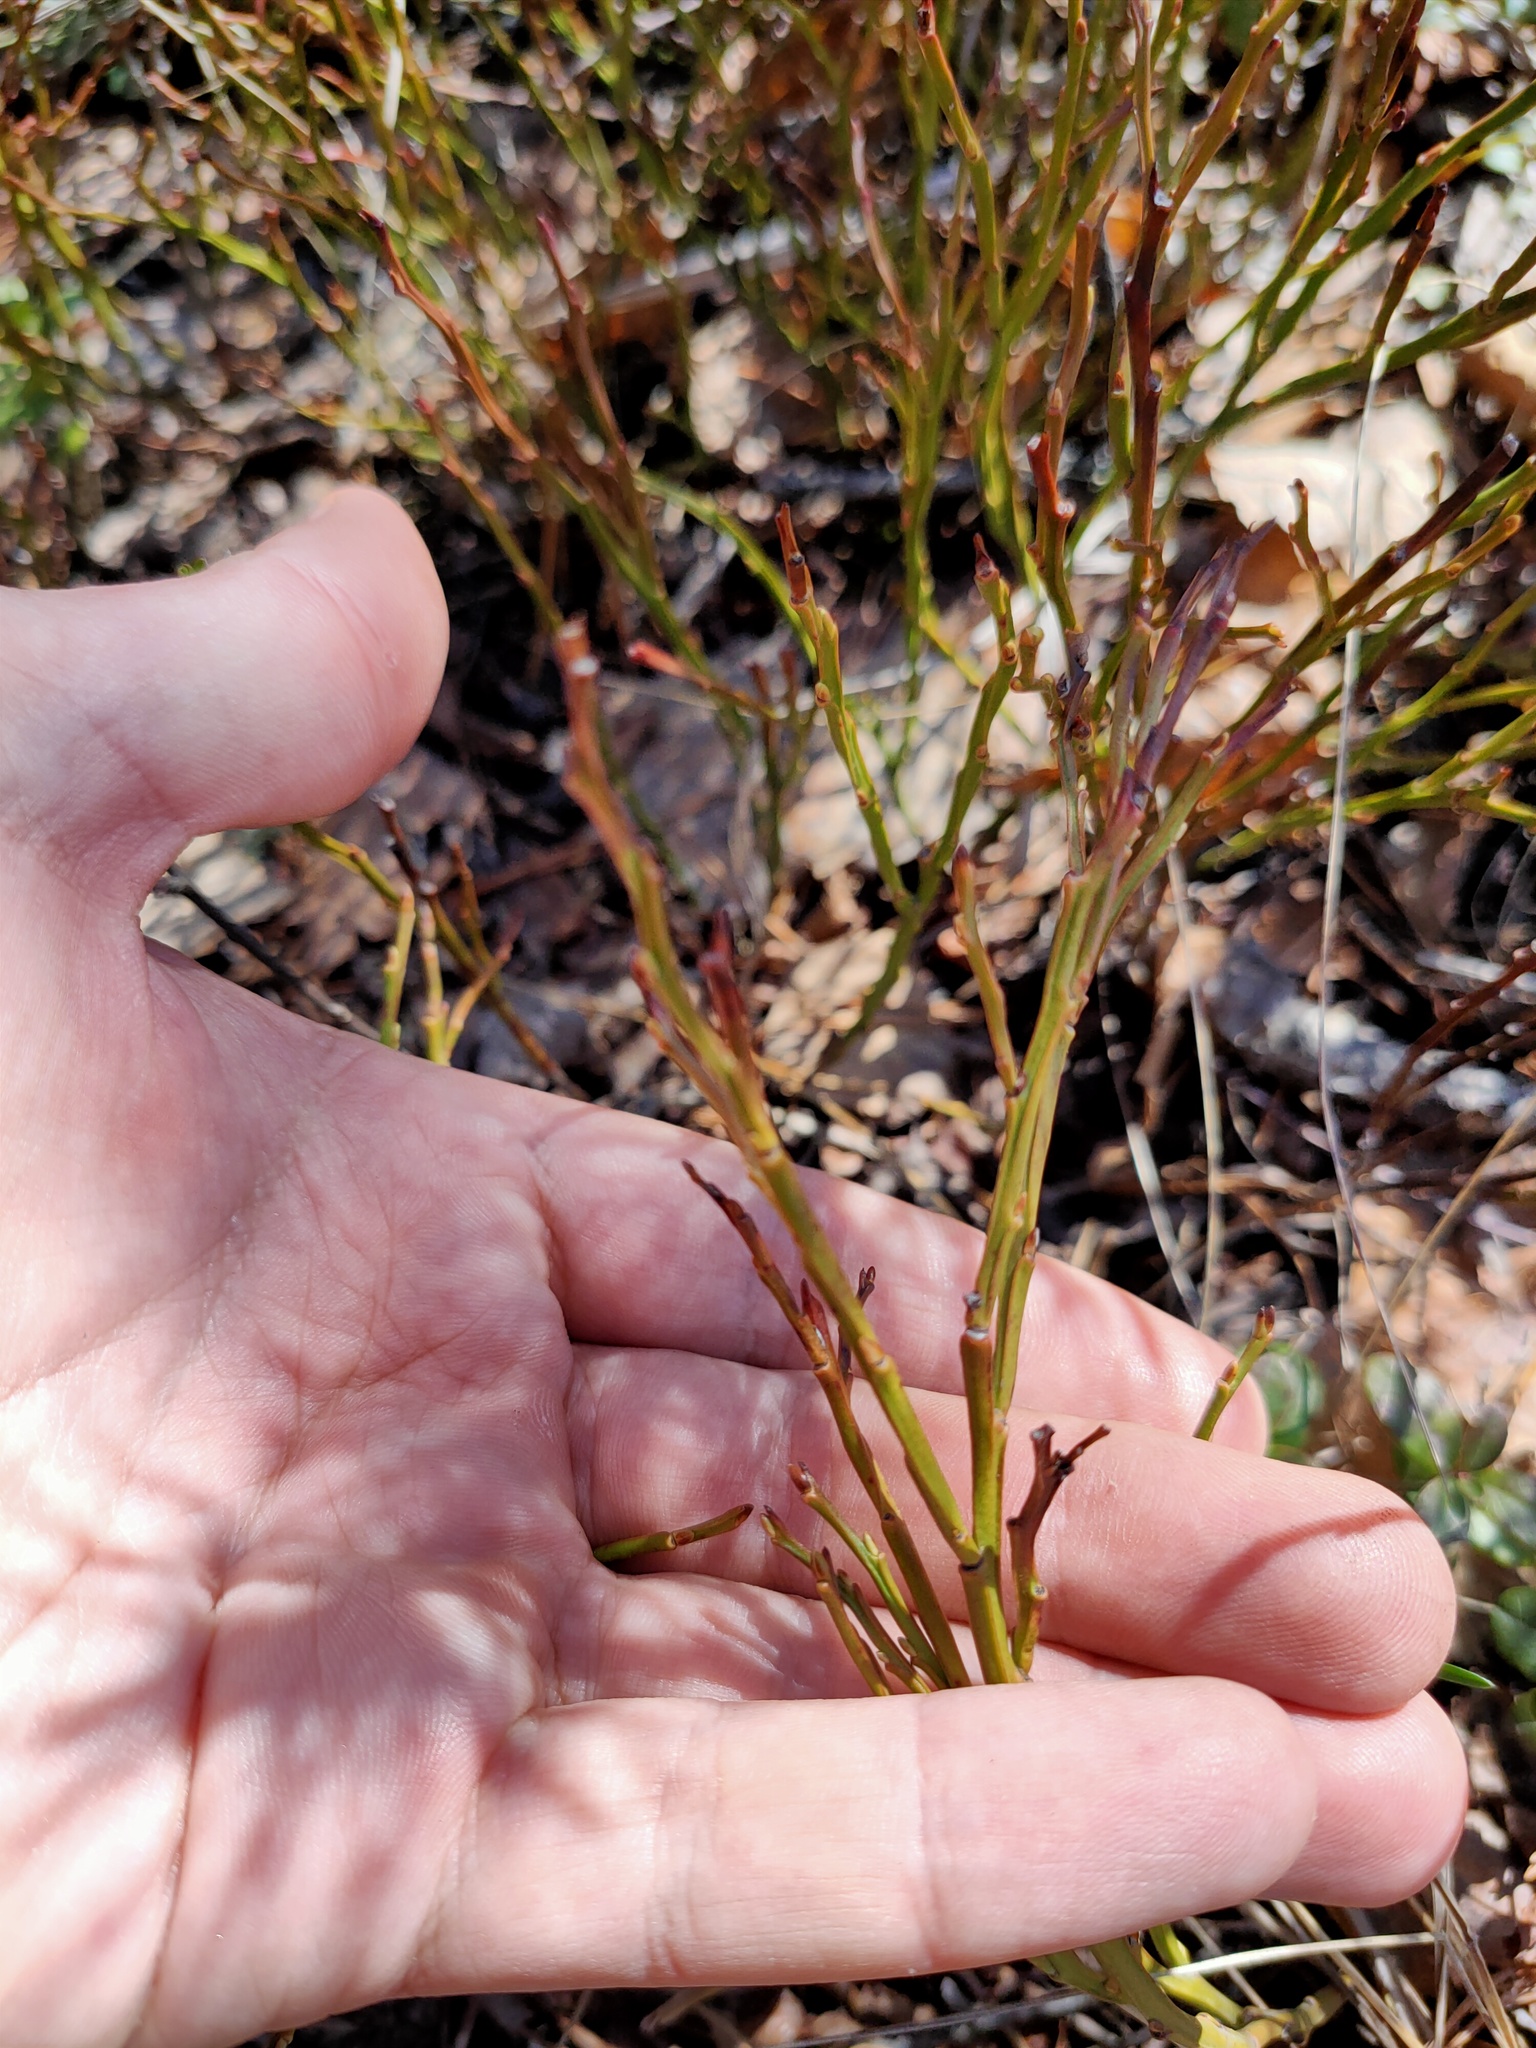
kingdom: Plantae
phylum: Tracheophyta
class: Magnoliopsida
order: Ericales
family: Ericaceae
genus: Vaccinium
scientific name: Vaccinium myrtillus
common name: Bilberry
